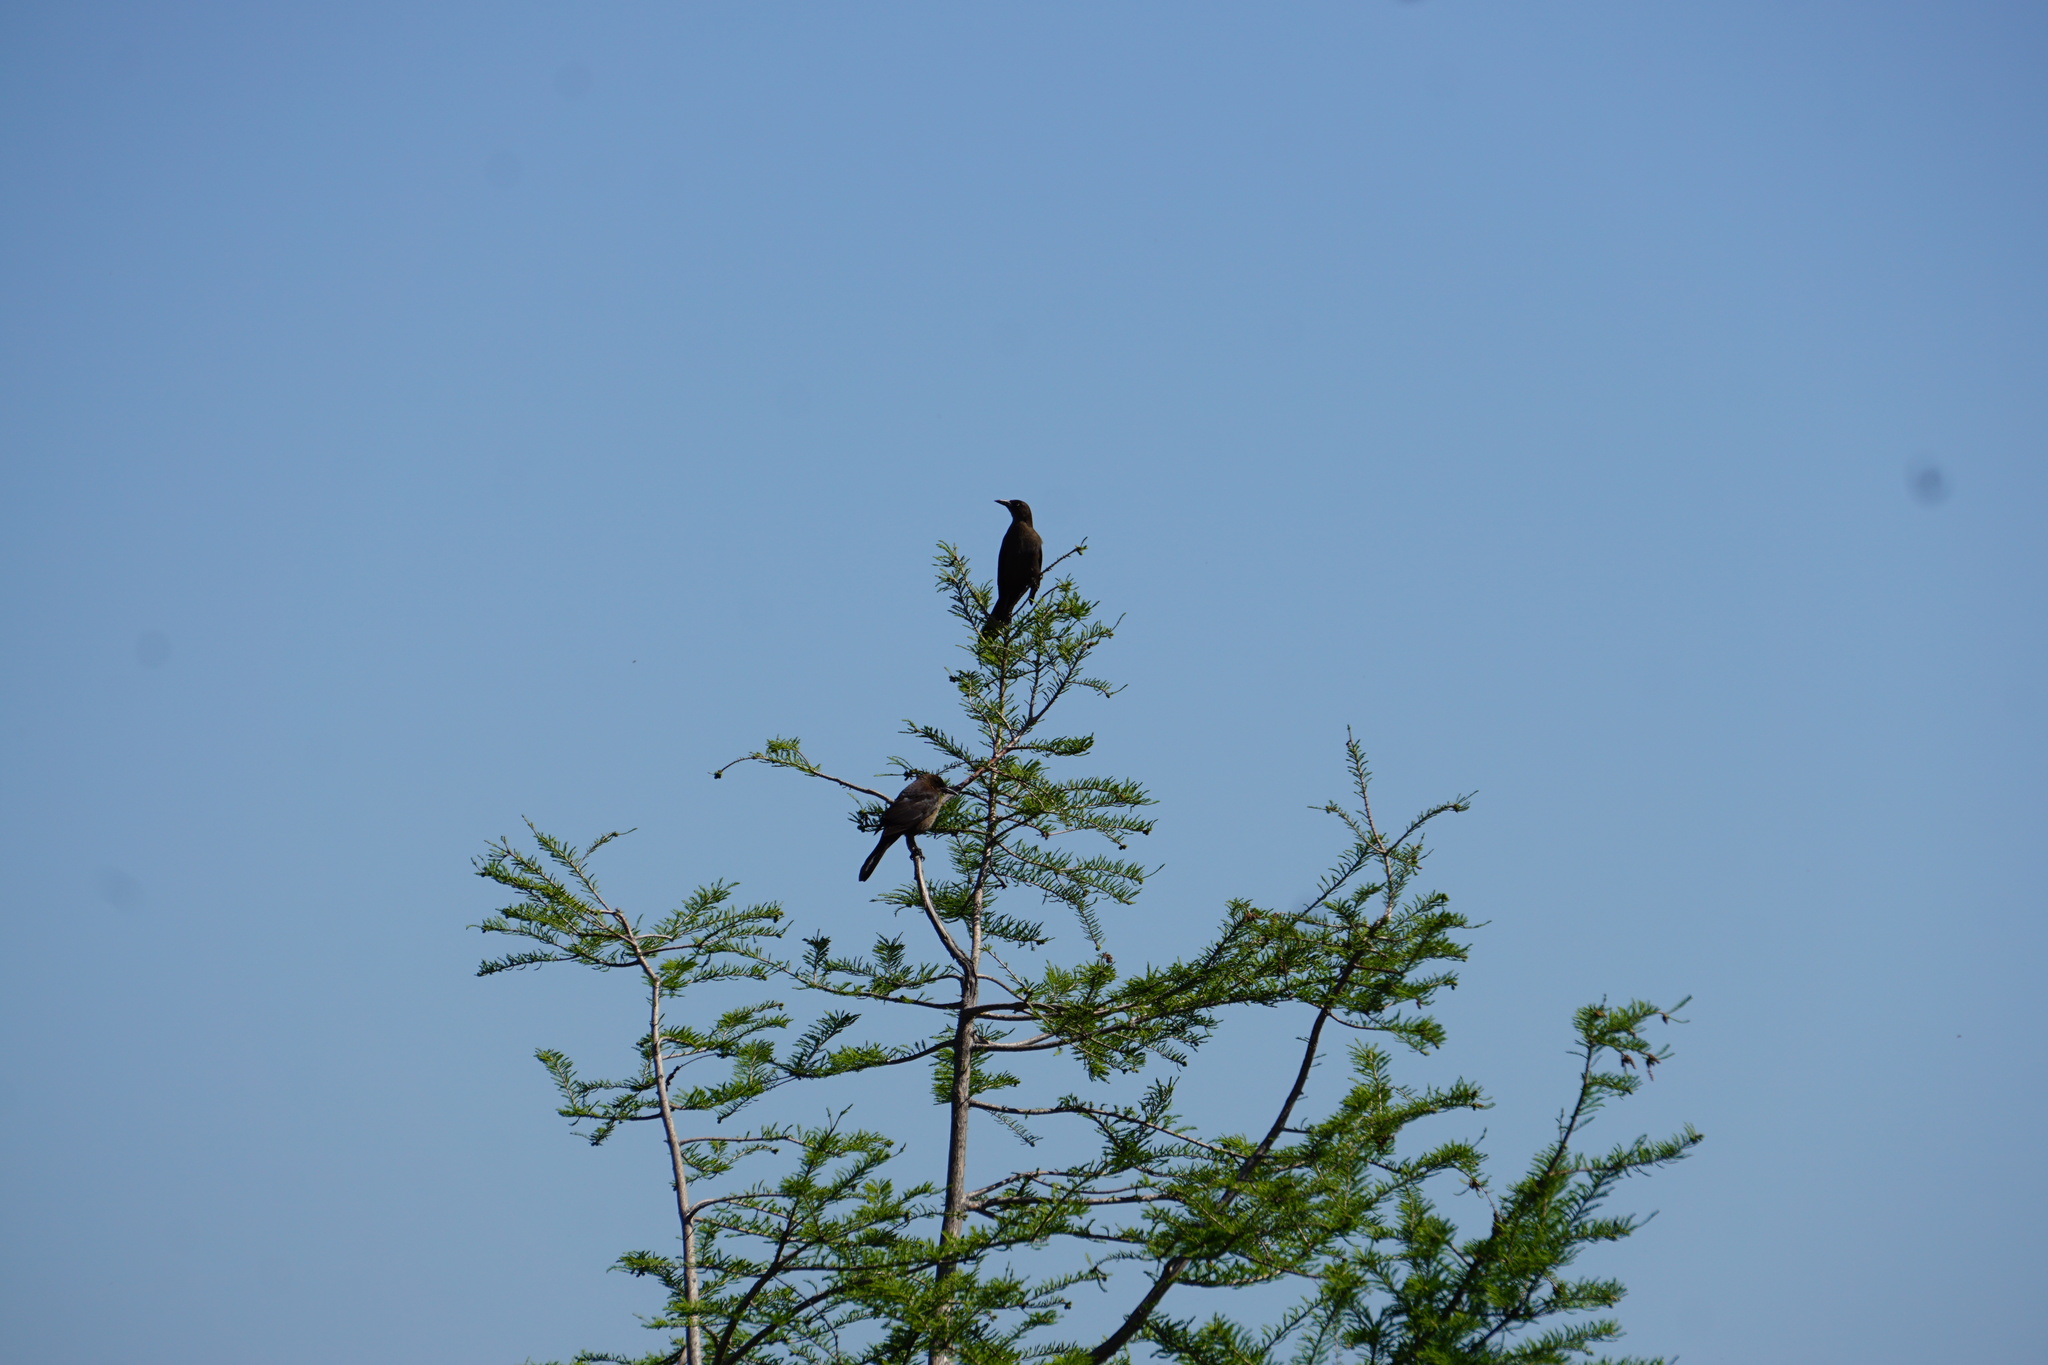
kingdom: Animalia
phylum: Chordata
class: Aves
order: Passeriformes
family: Icteridae
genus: Quiscalus
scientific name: Quiscalus mexicanus
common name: Great-tailed grackle
